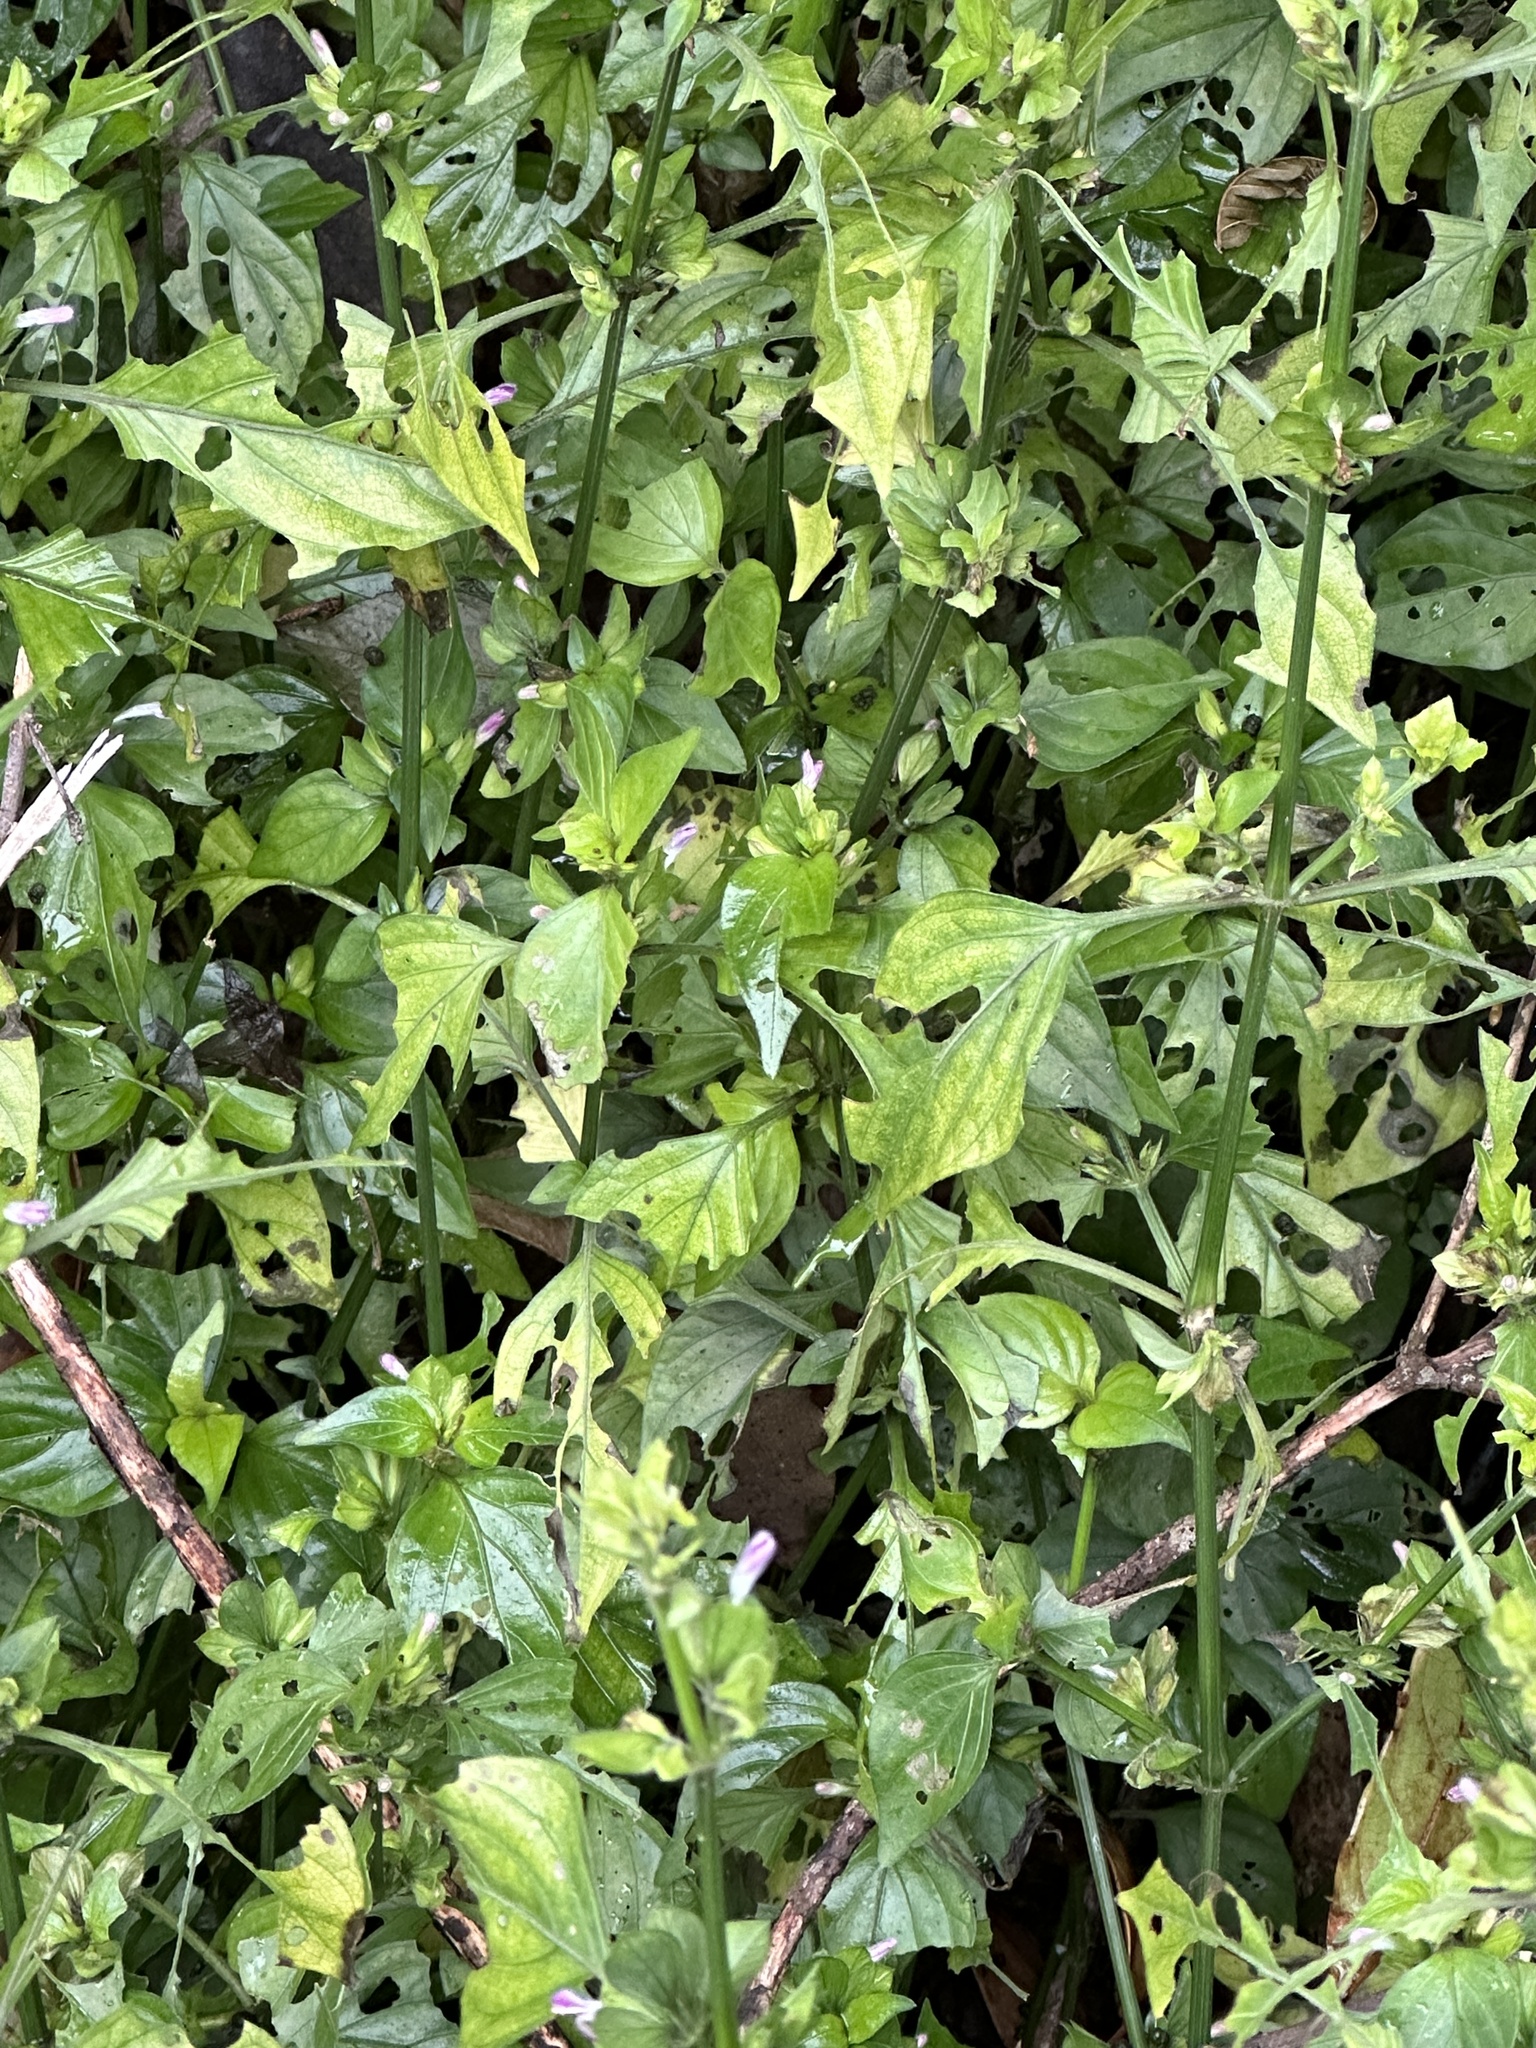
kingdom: Plantae
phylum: Tracheophyta
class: Magnoliopsida
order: Lamiales
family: Acanthaceae
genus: Dicliptera
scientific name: Dicliptera chinensis
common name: Chinese foldwing
